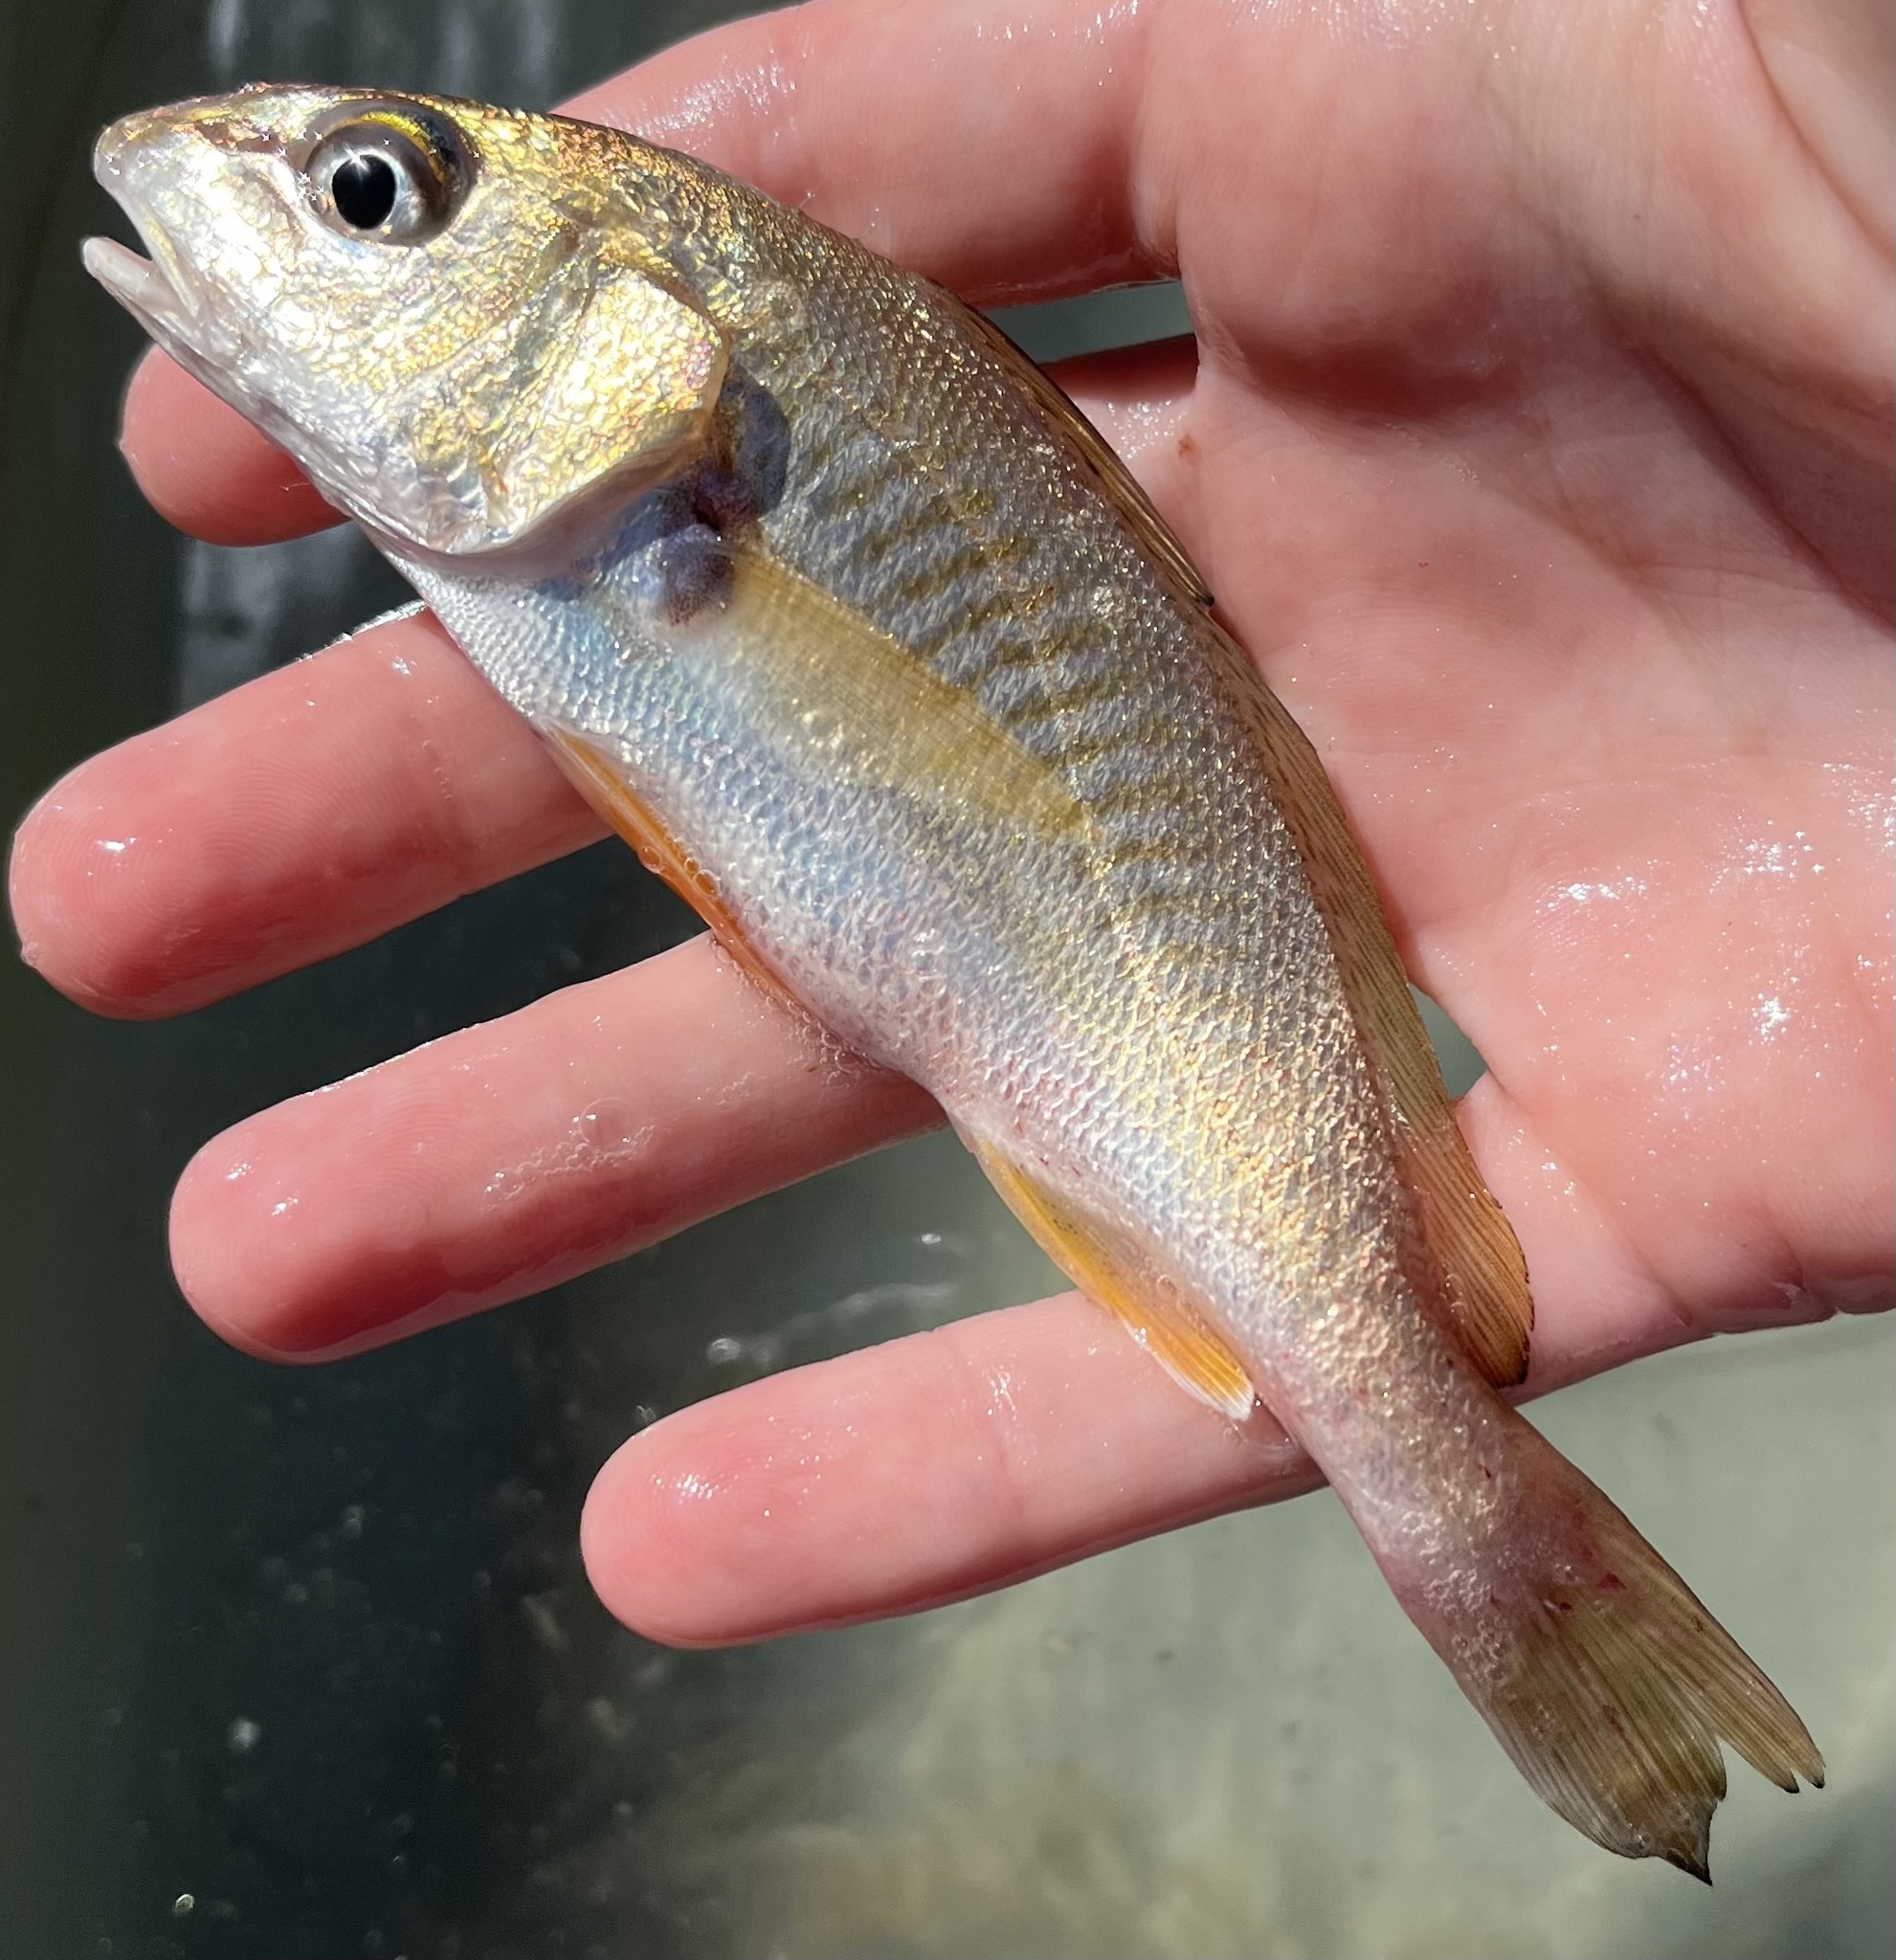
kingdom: Animalia
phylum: Chordata
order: Perciformes
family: Sciaenidae
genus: Micropogonias
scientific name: Micropogonias undulatus
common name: Atlantic croaker
